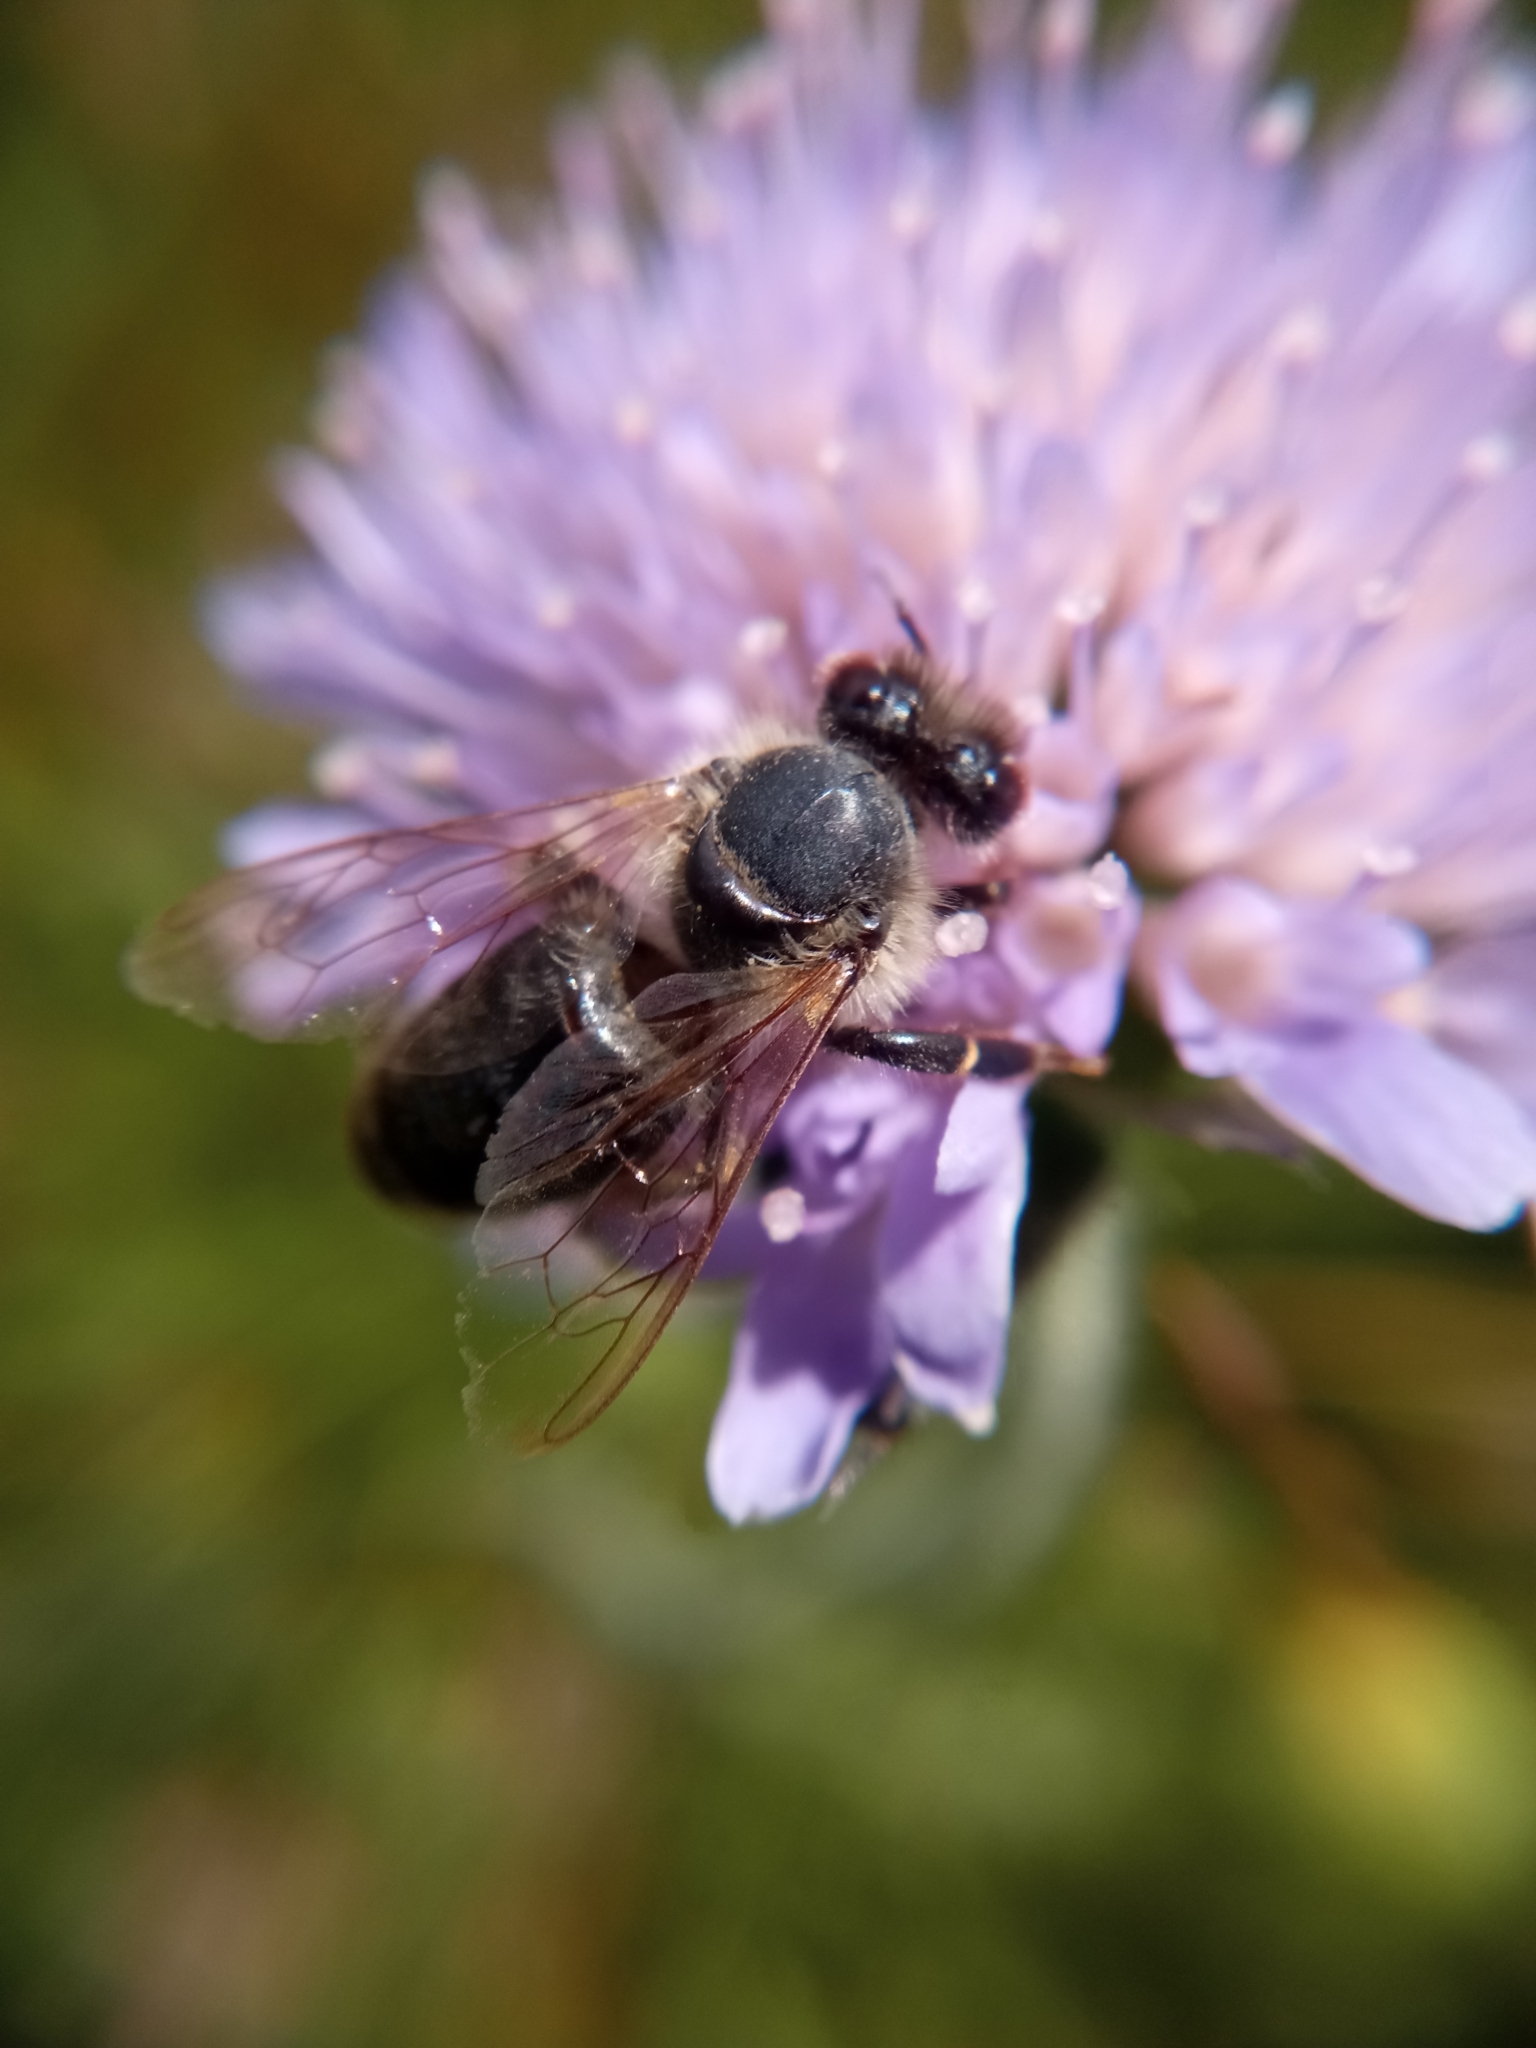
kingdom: Animalia
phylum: Arthropoda
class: Insecta
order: Hymenoptera
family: Apidae
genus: Apis
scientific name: Apis mellifera
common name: Honey bee
